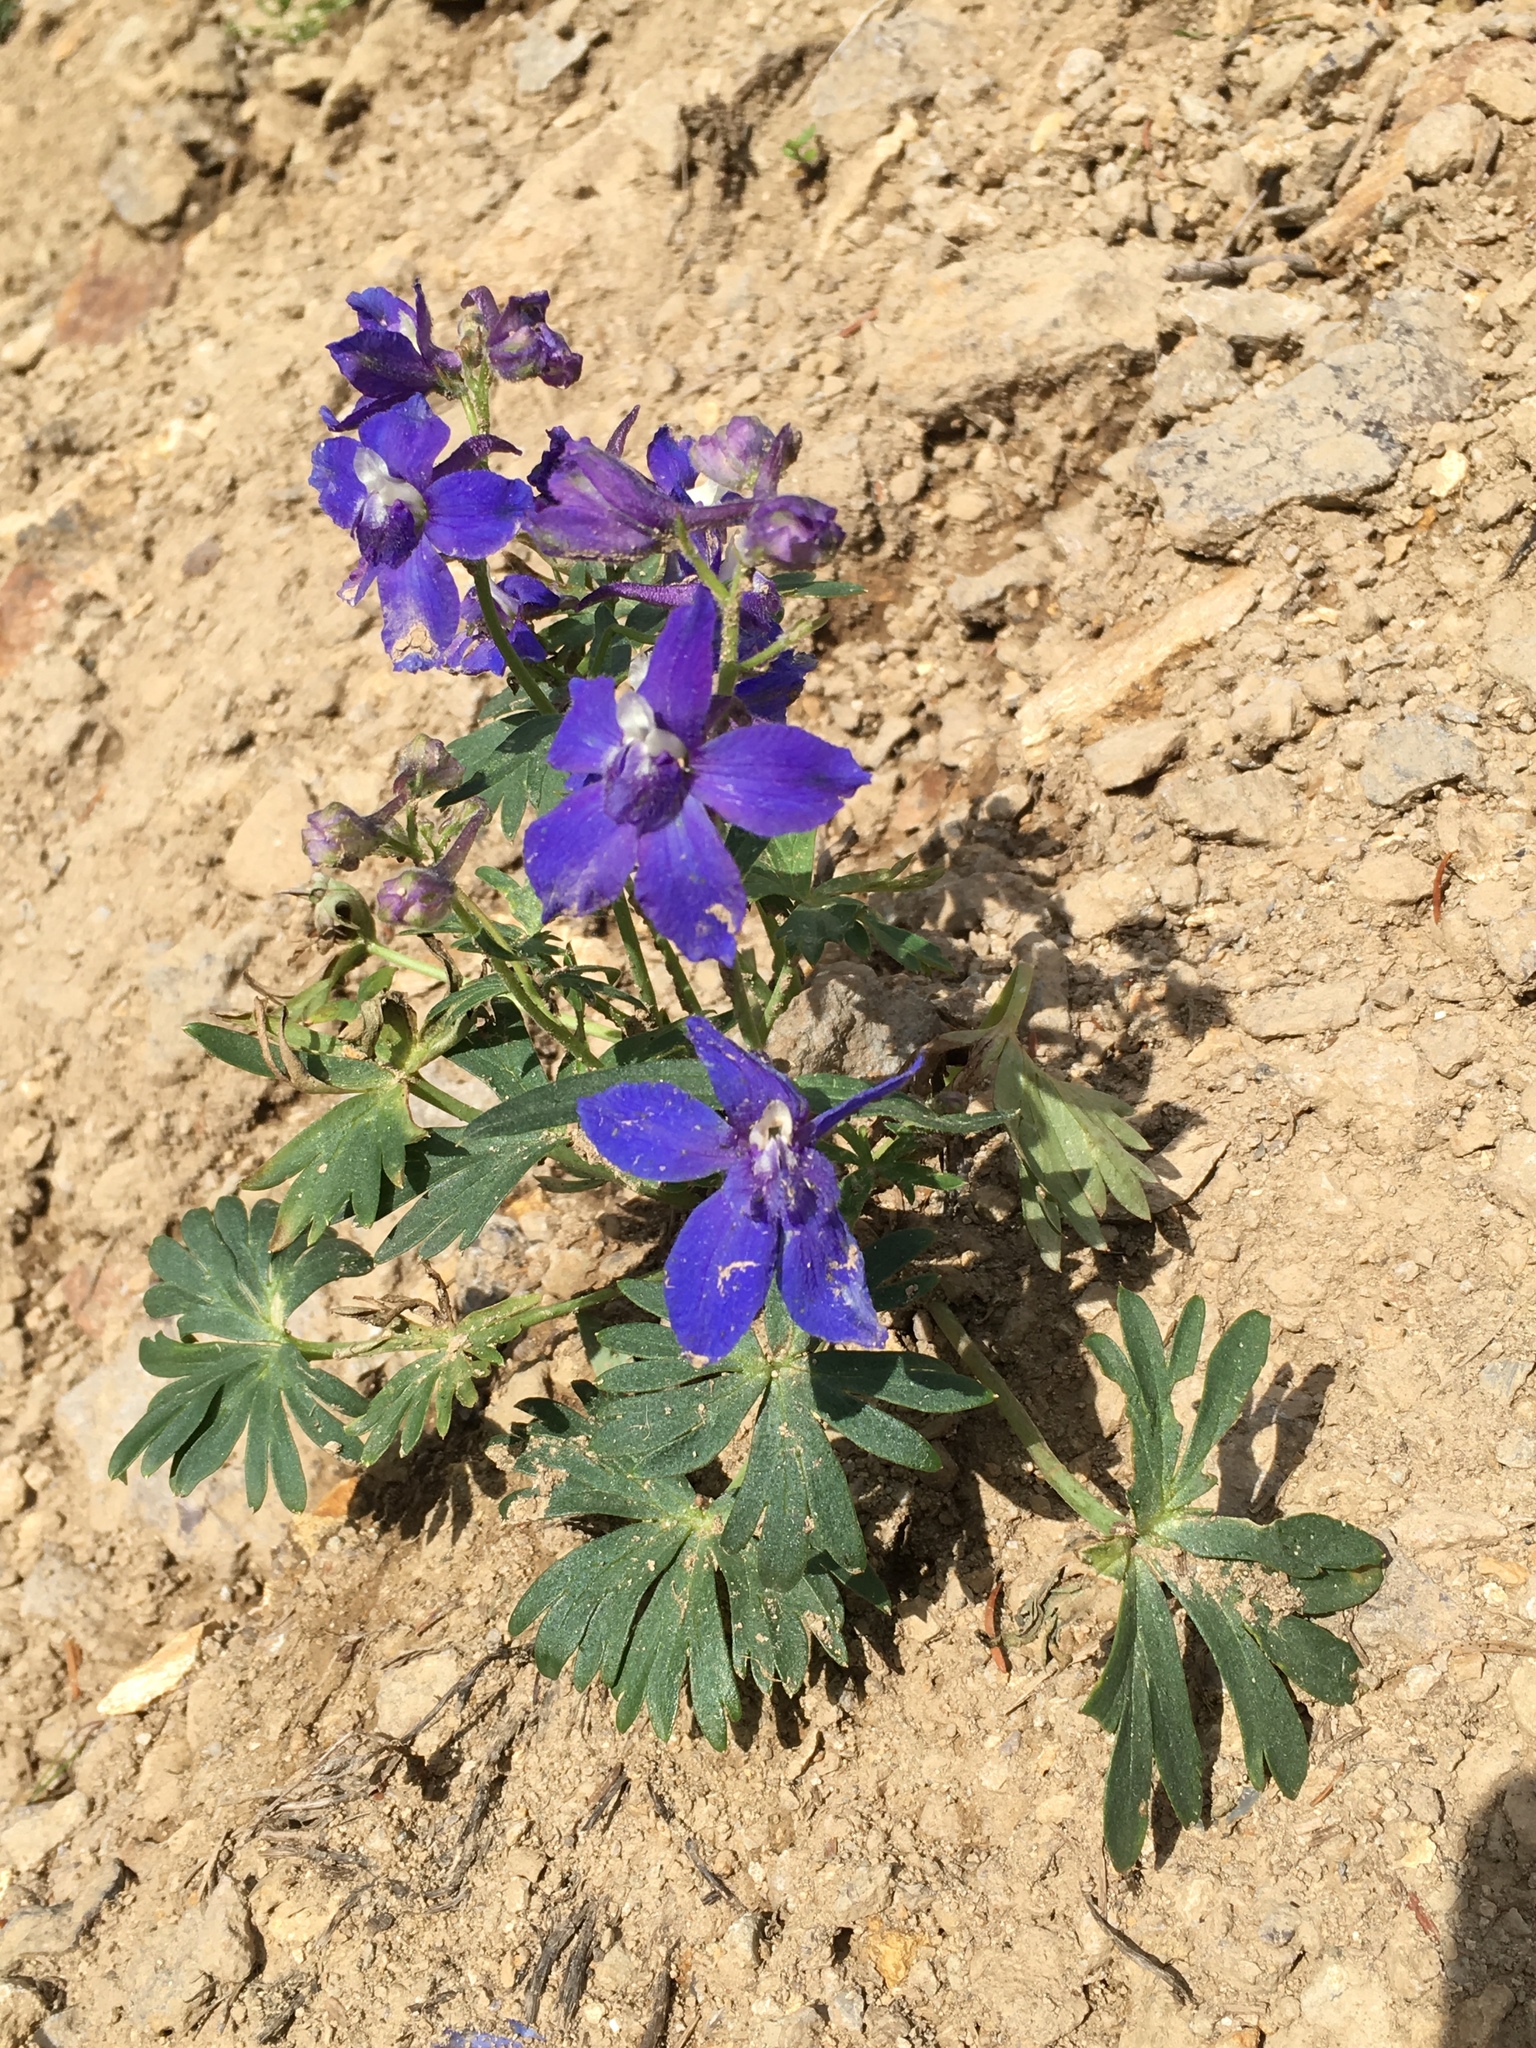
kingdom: Plantae
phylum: Tracheophyta
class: Magnoliopsida
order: Ranunculales
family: Ranunculaceae
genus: Delphinium
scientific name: Delphinium glareosum
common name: Olympic mountain larkspur
